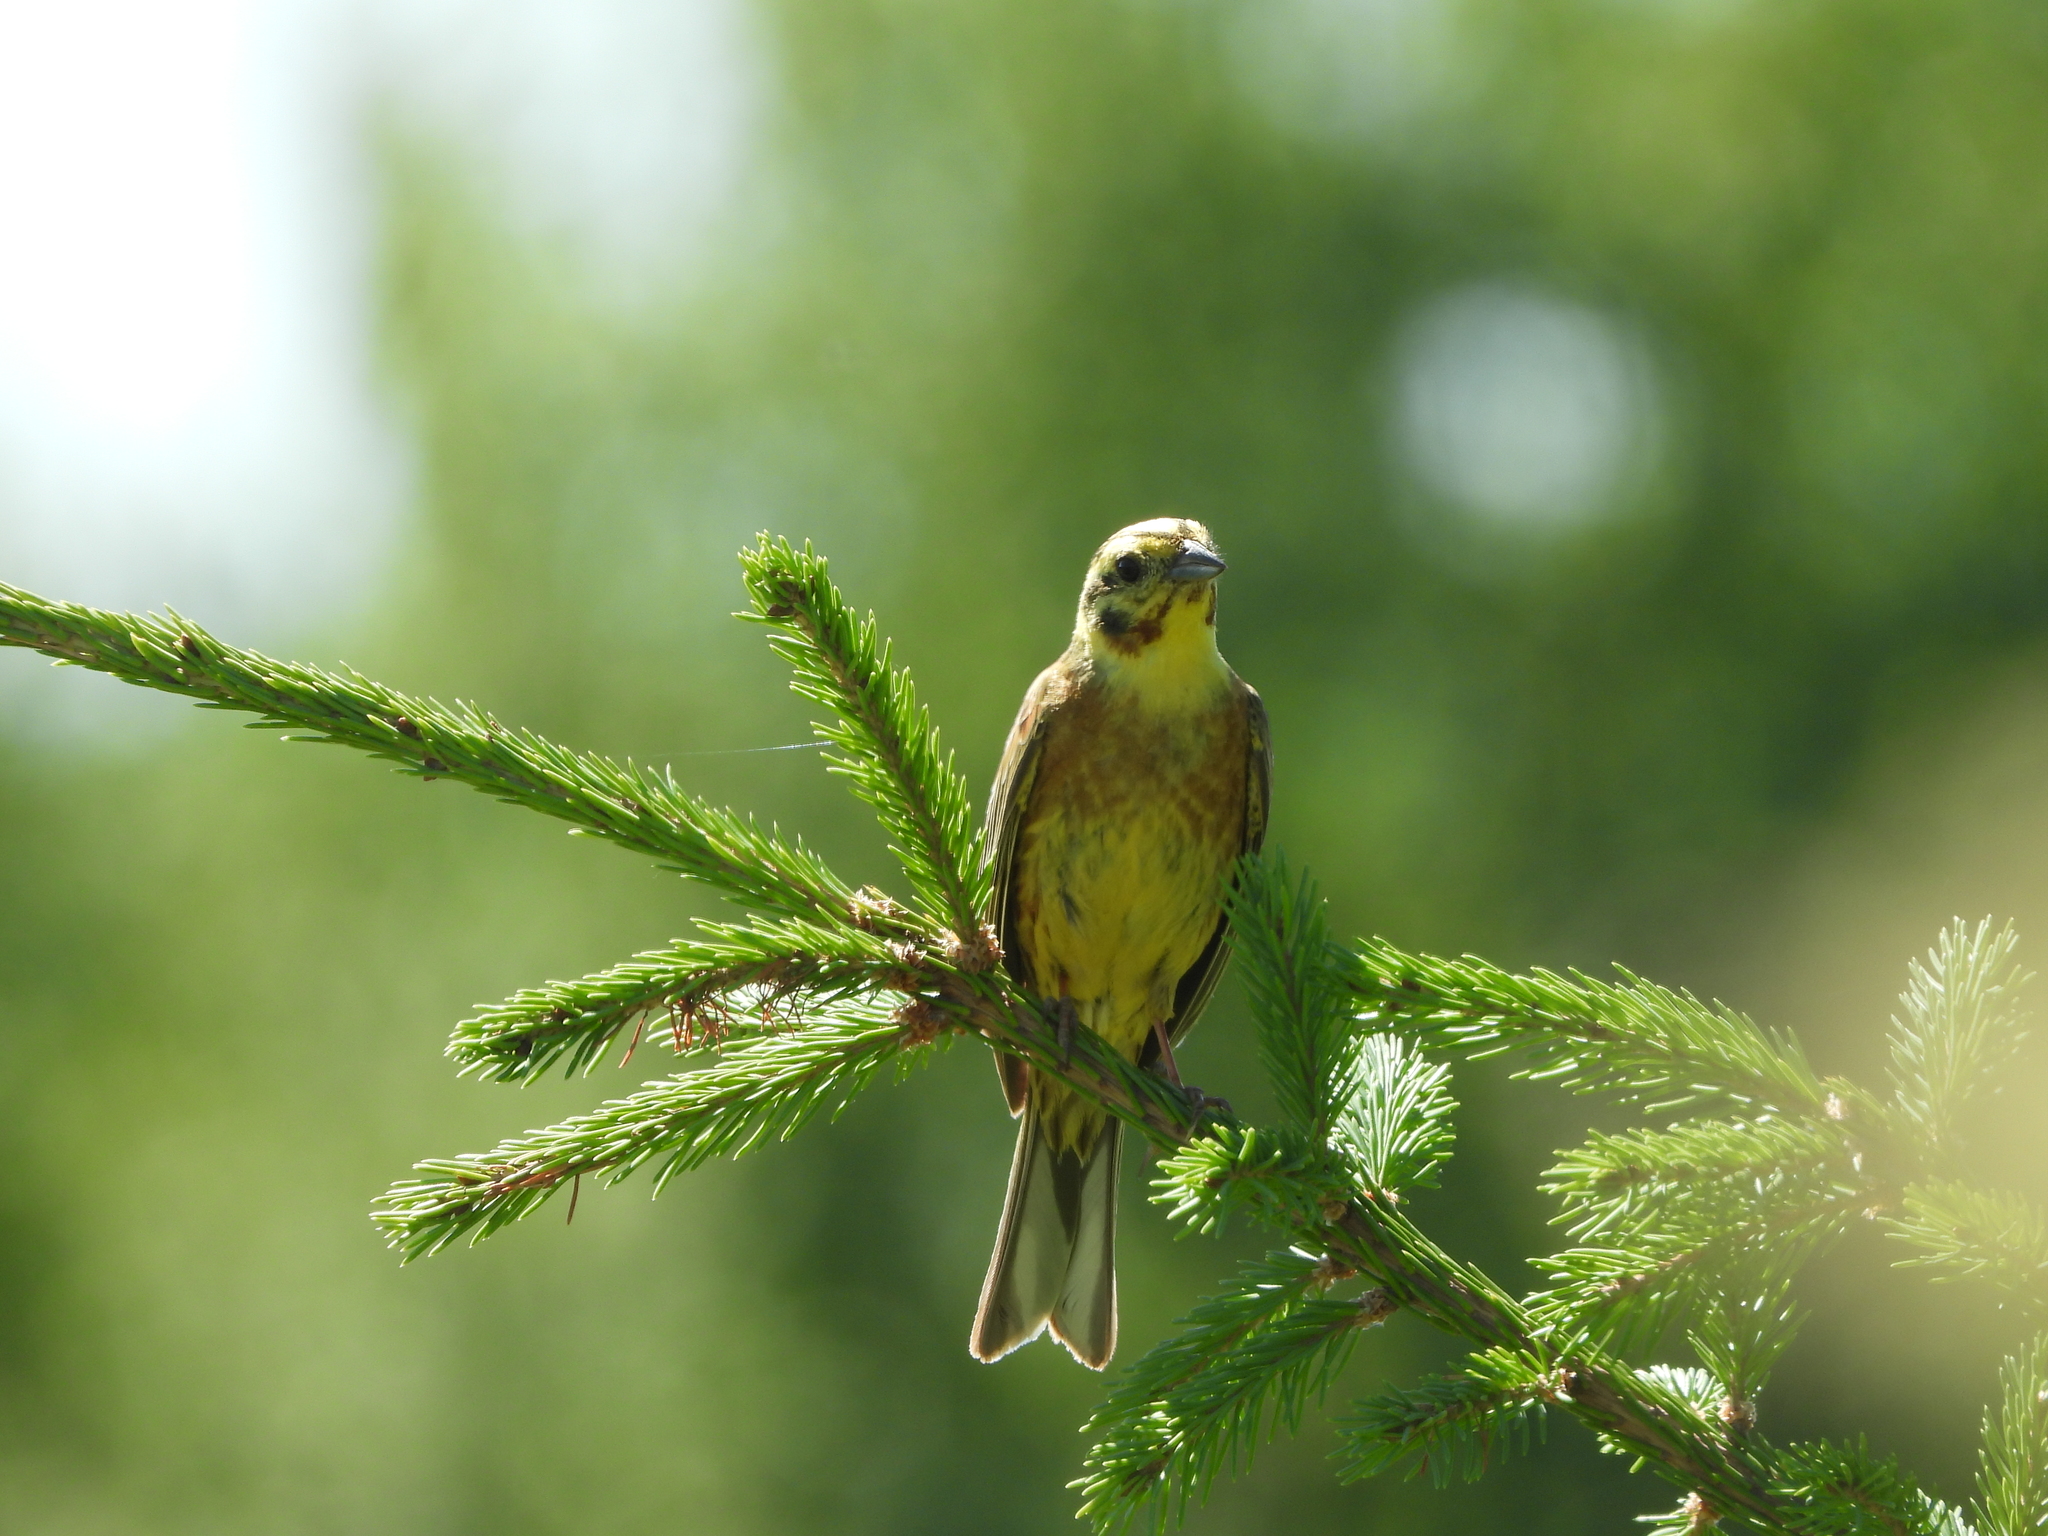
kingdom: Animalia
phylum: Chordata
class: Aves
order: Passeriformes
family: Emberizidae
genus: Emberiza
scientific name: Emberiza citrinella
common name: Yellowhammer
